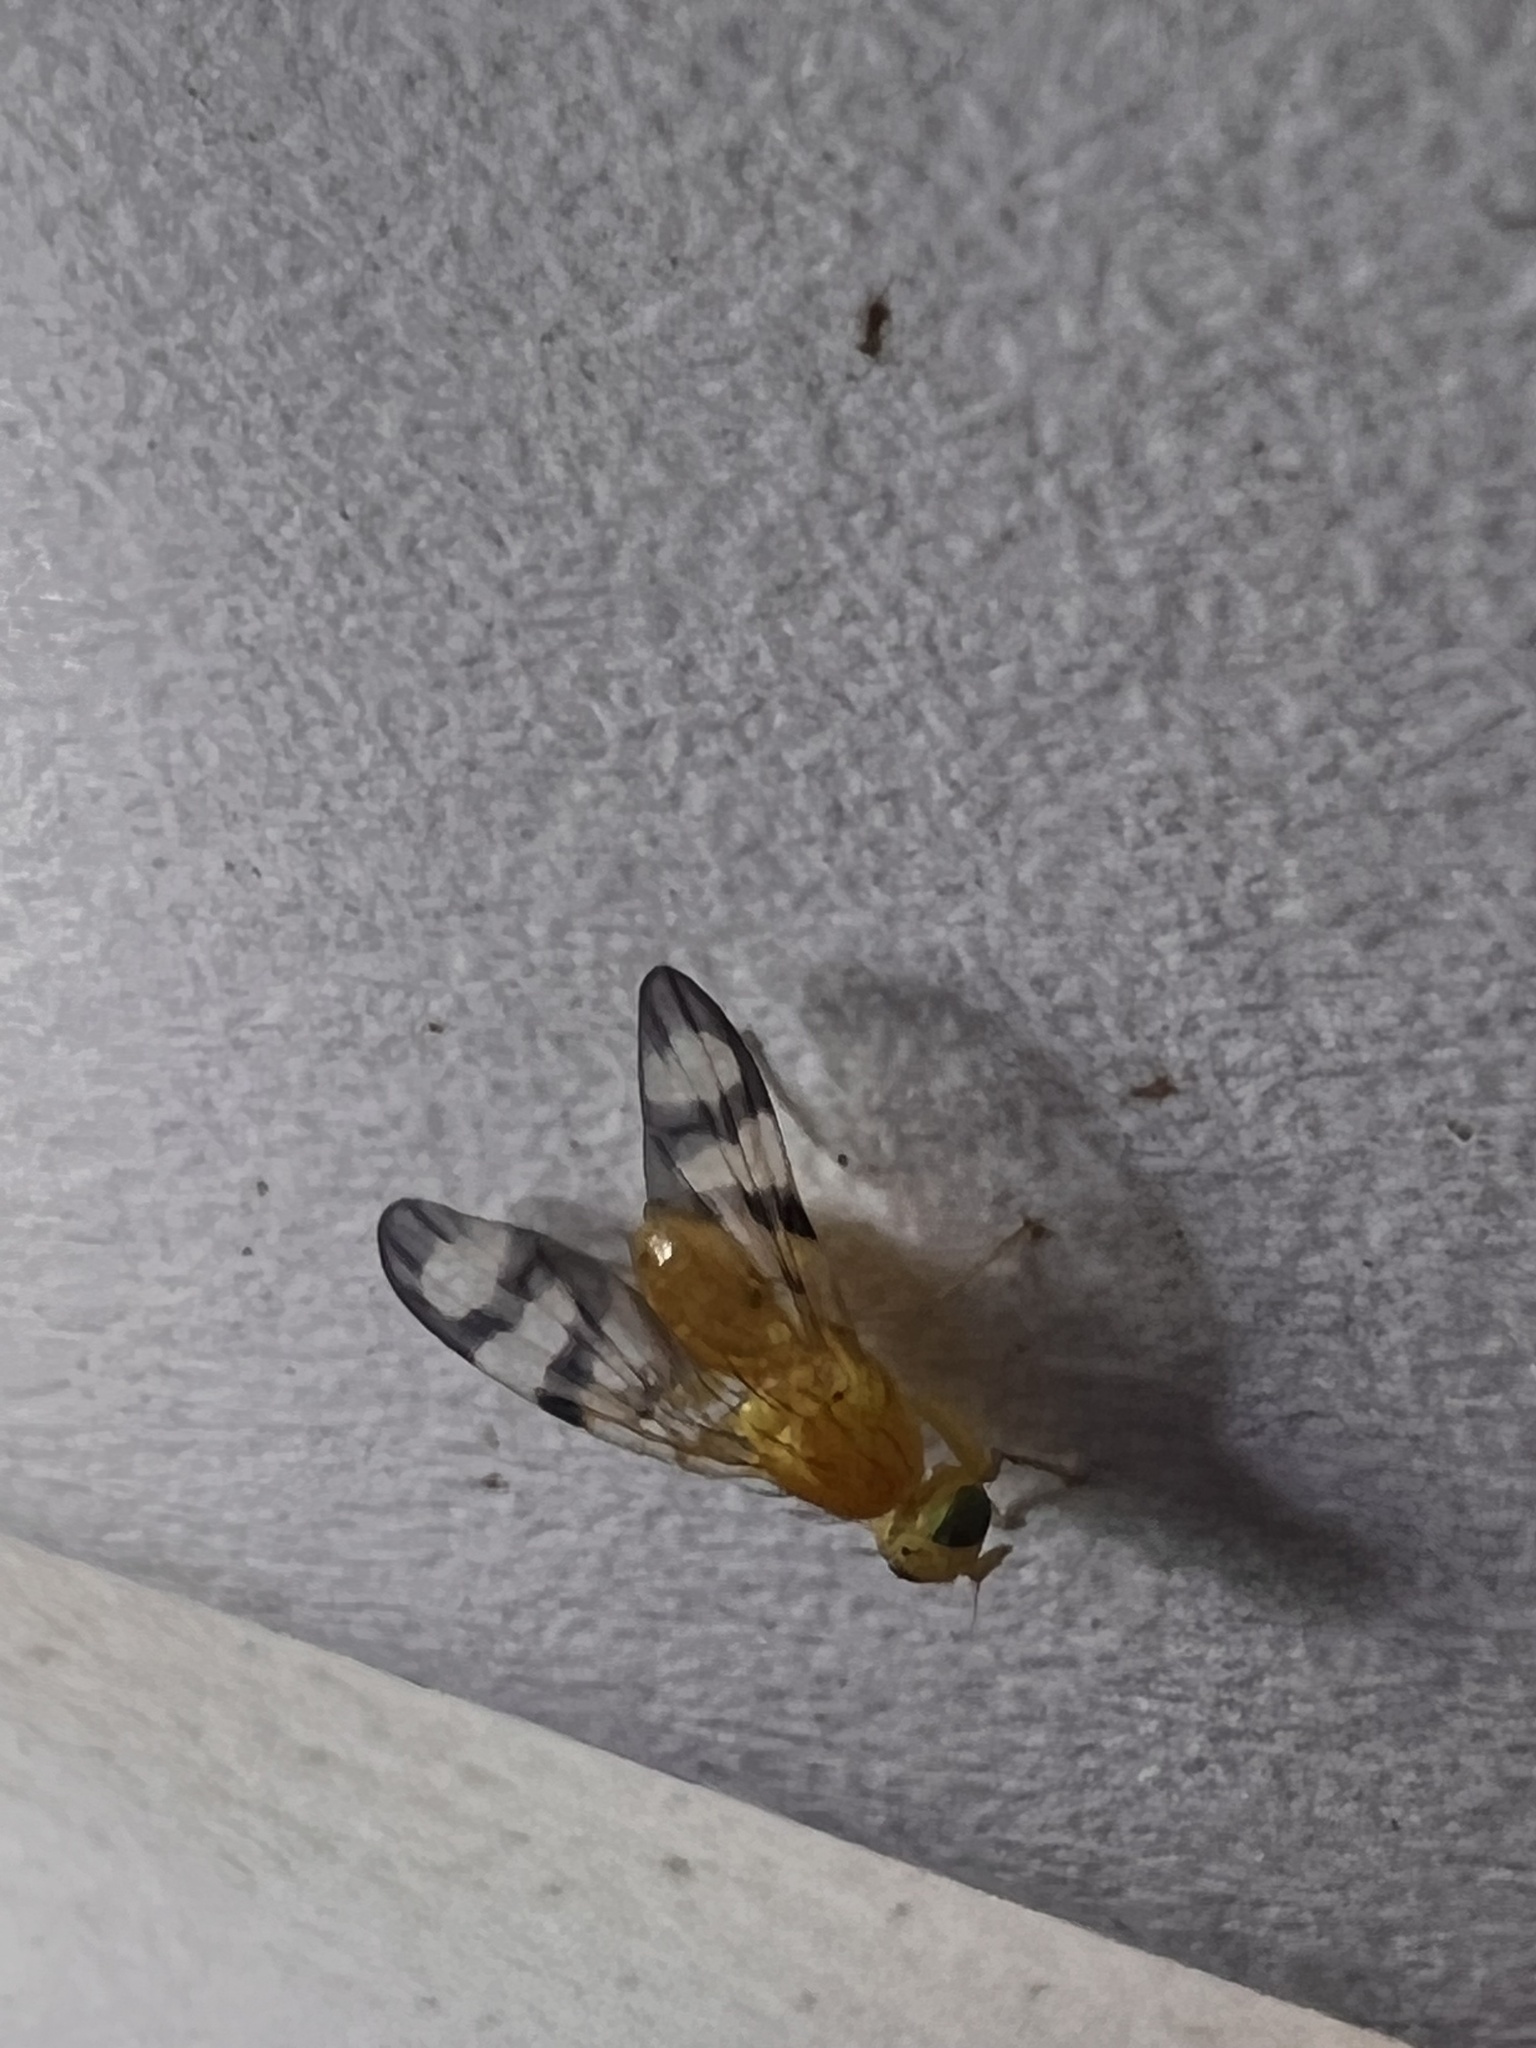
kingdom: Animalia
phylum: Arthropoda
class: Insecta
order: Diptera
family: Tephritidae
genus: Trypeta
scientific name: Trypeta flaveola
